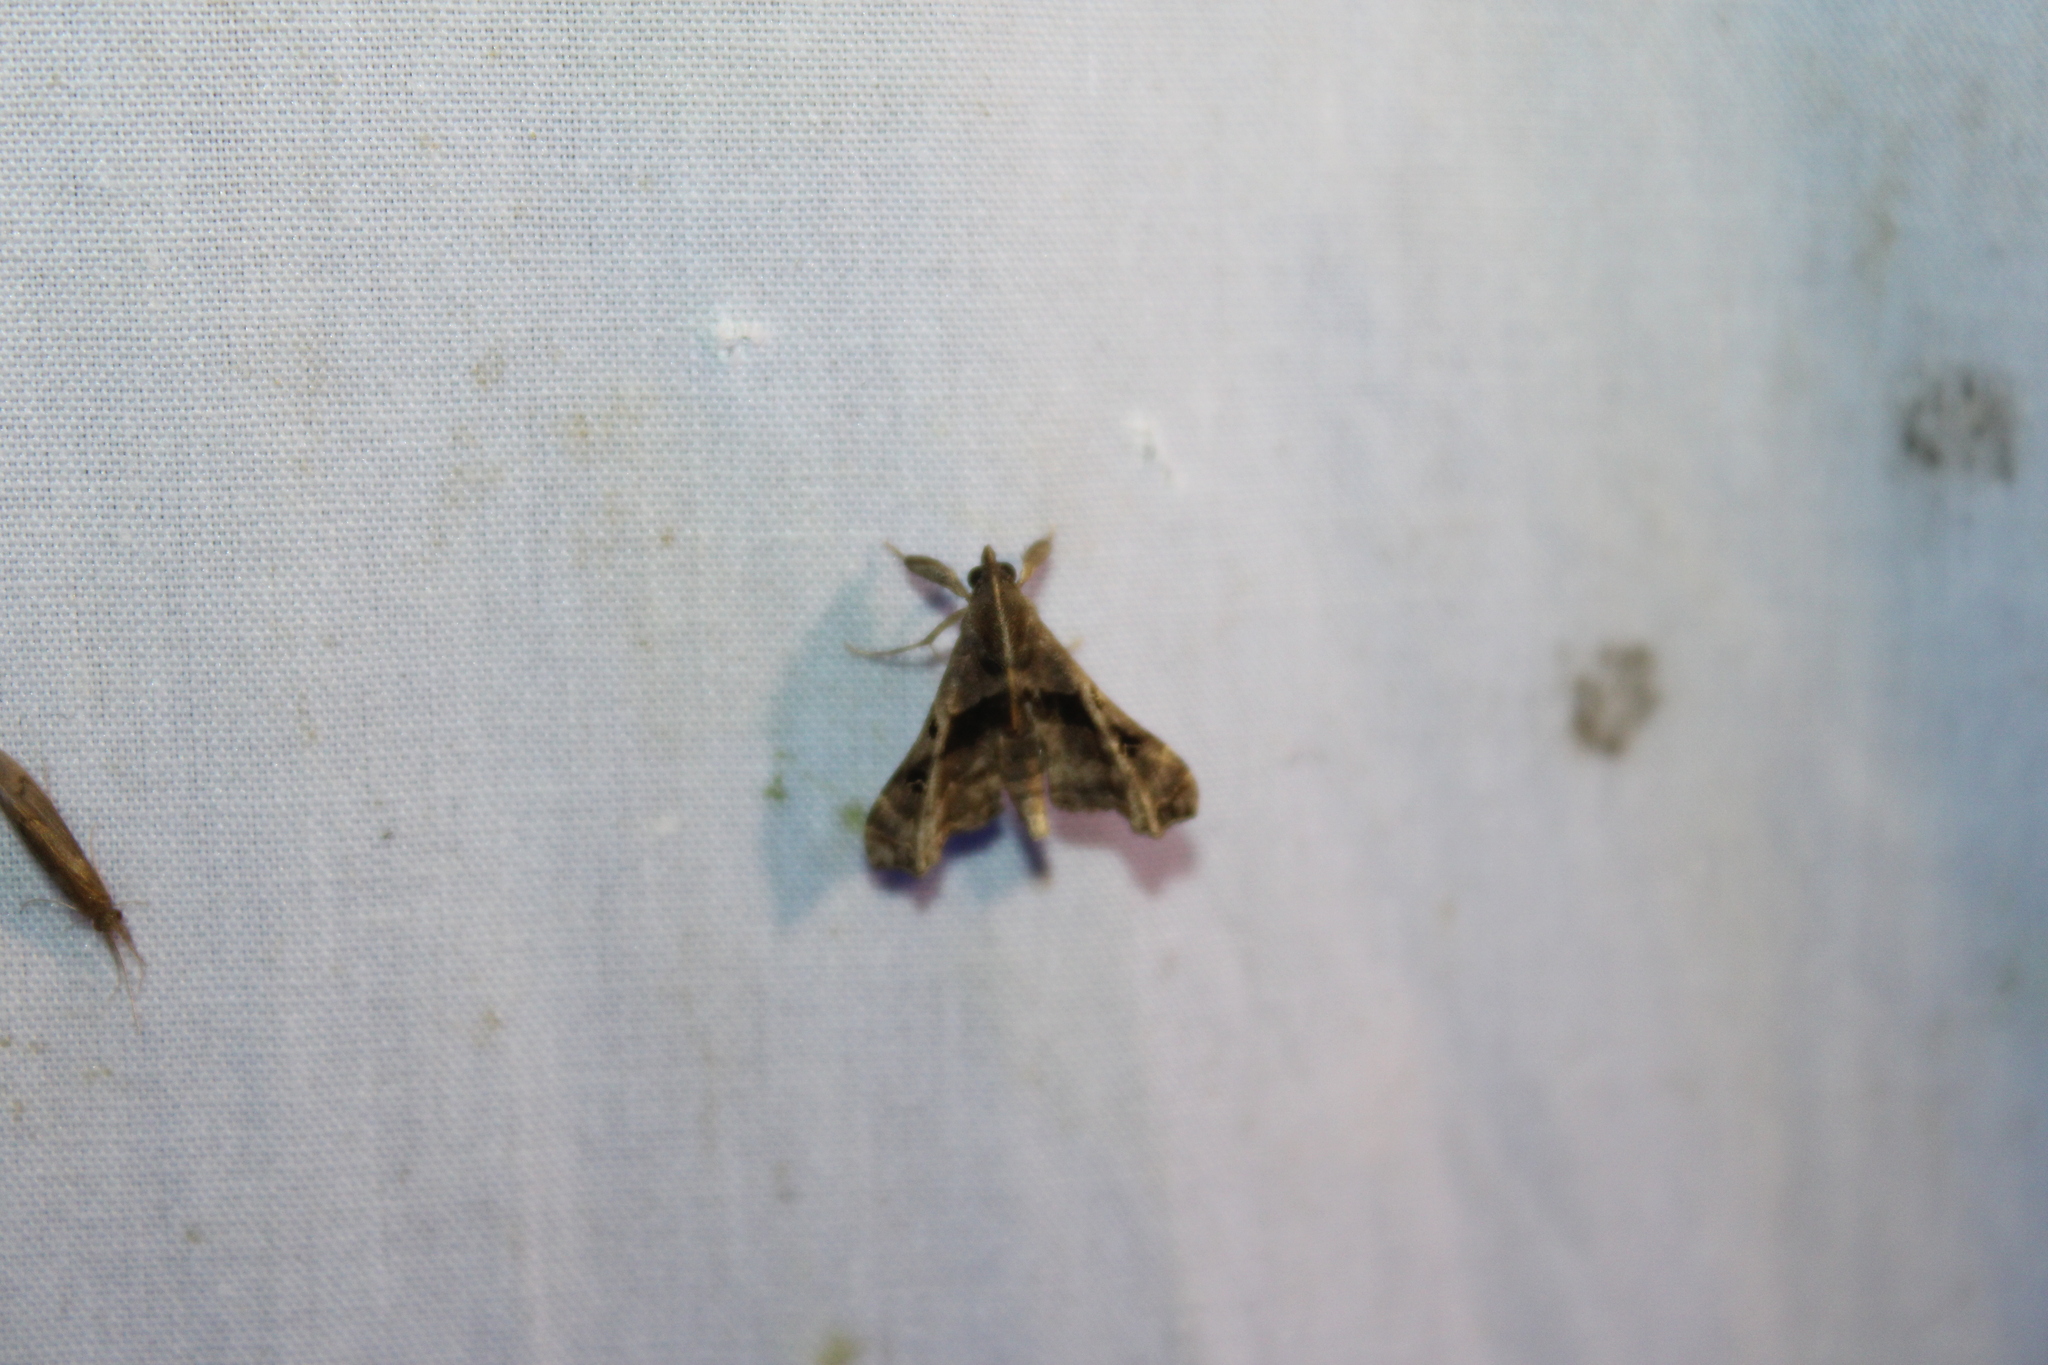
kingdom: Animalia
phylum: Arthropoda
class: Insecta
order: Lepidoptera
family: Erebidae
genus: Palthis
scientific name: Palthis asopialis
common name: Faint-spotted palthis moth
